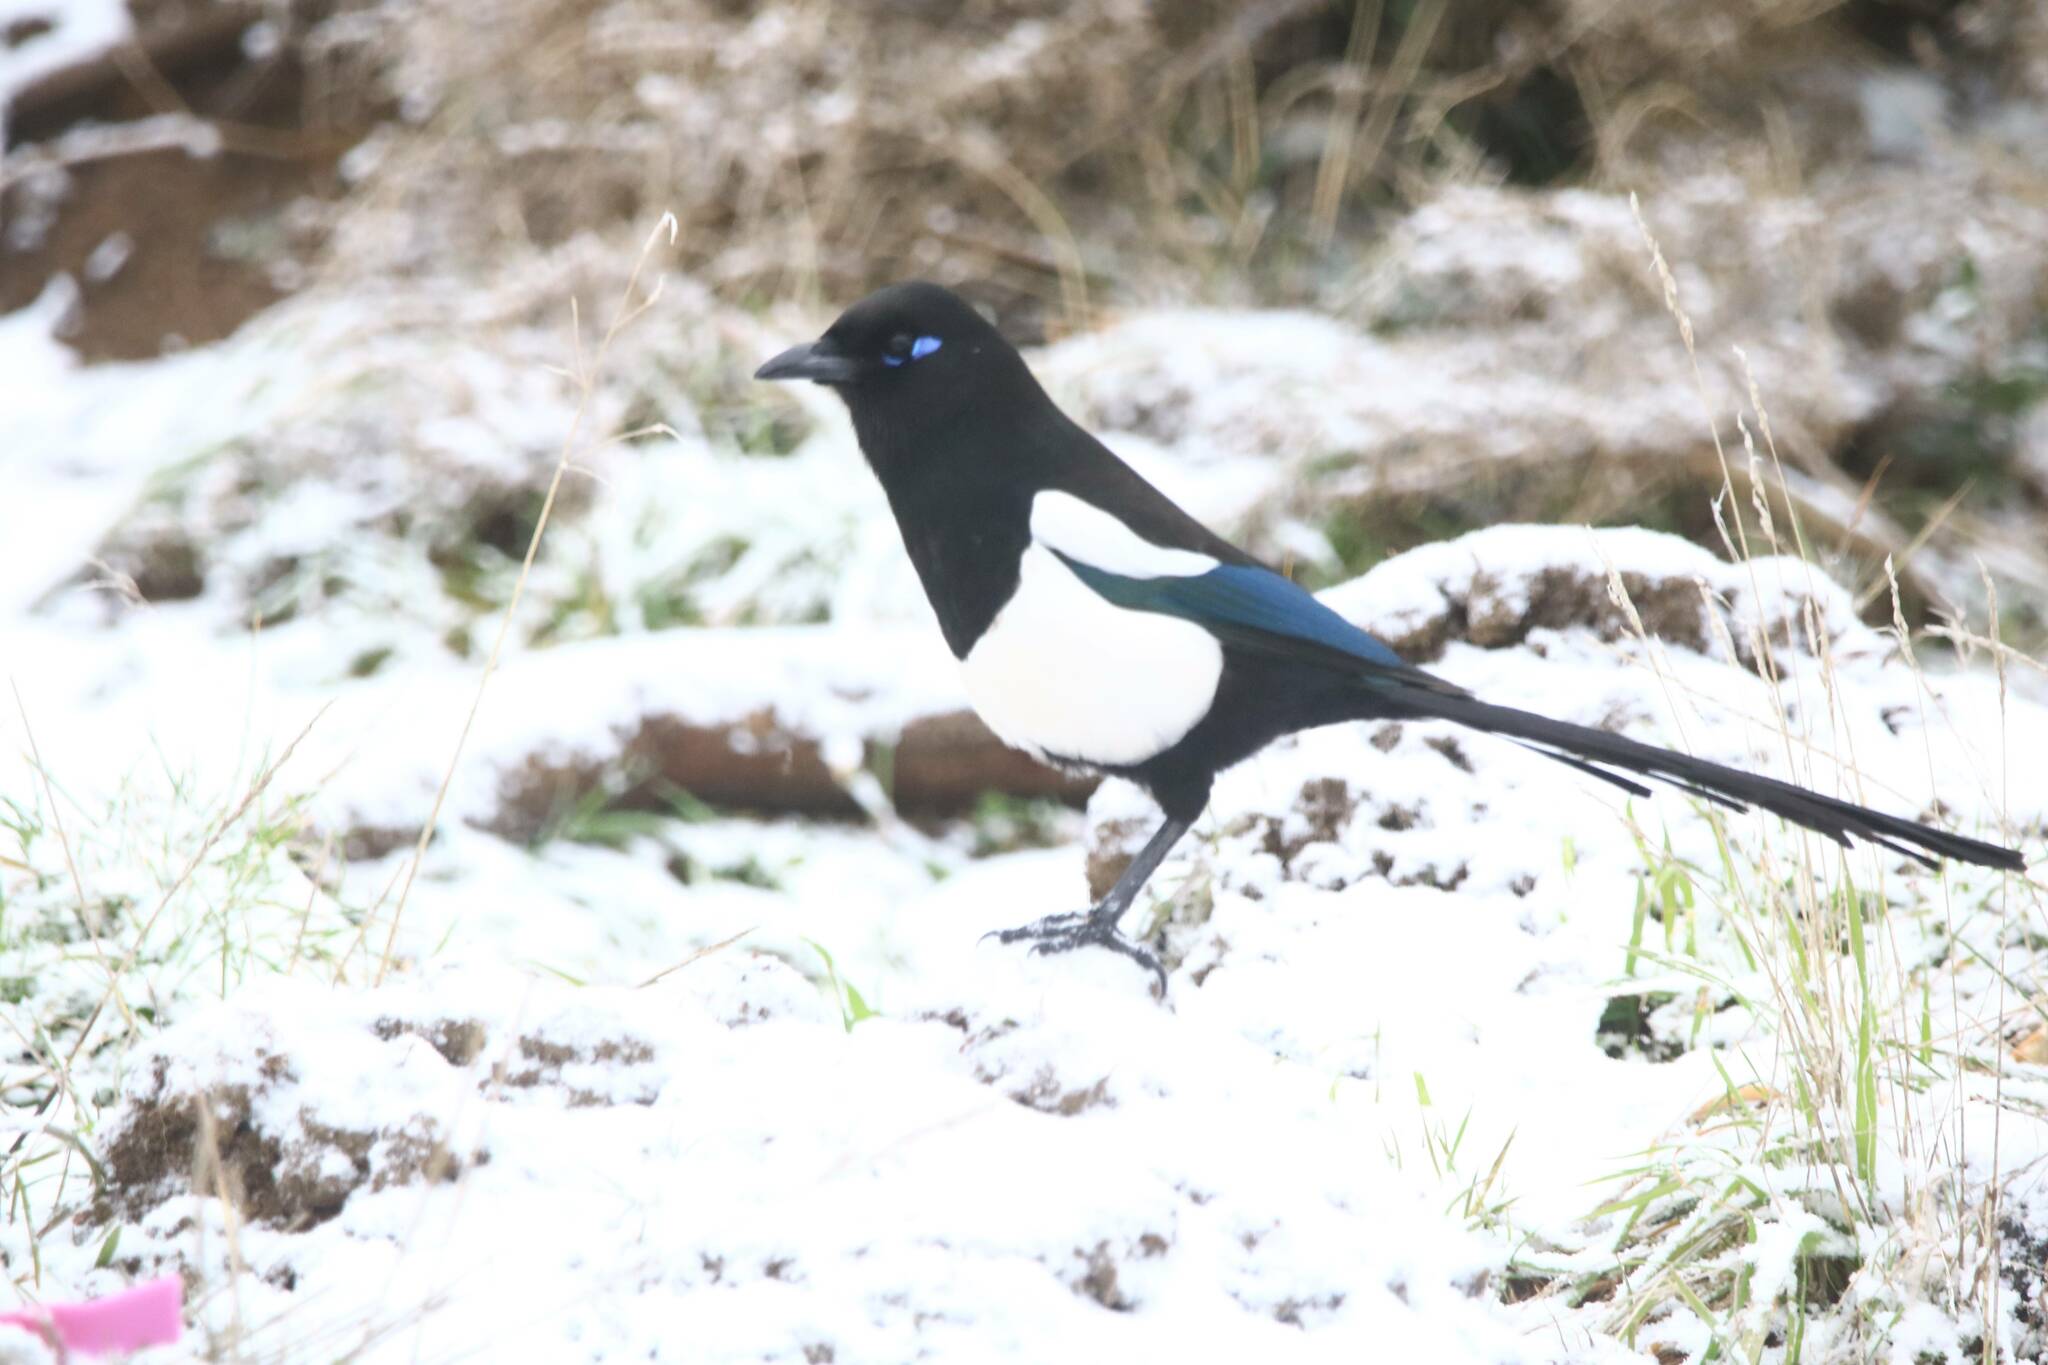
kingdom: Animalia
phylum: Chordata
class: Aves
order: Passeriformes
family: Corvidae
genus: Pica
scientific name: Pica mauritanica
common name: Maghreb magpie
